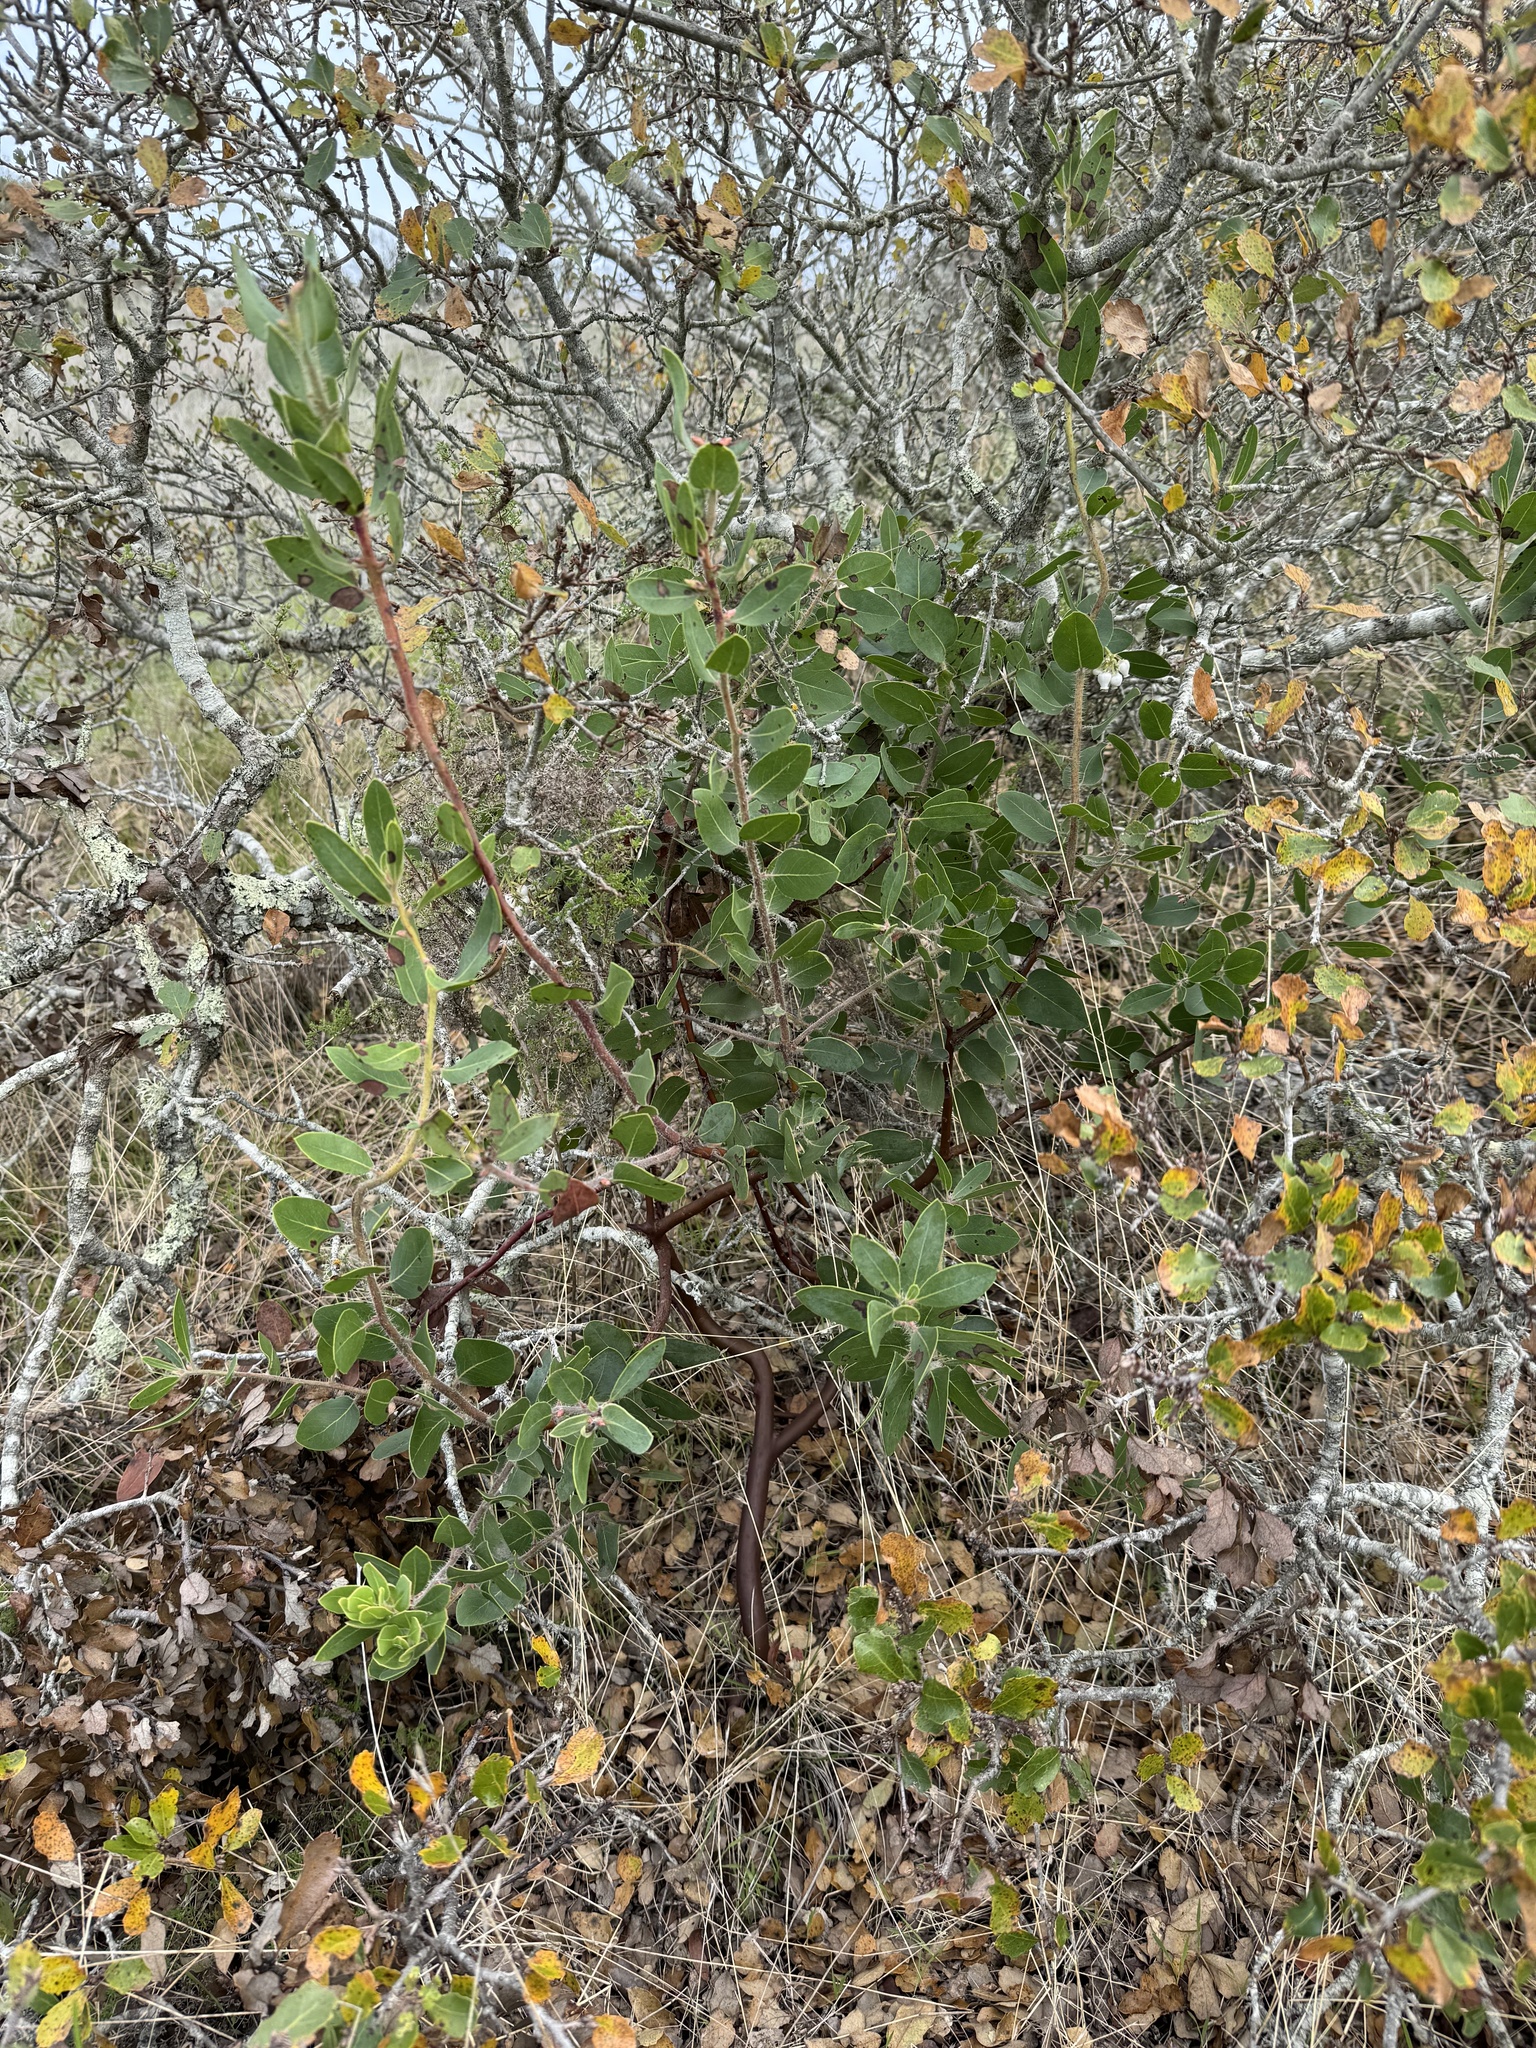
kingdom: Plantae
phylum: Tracheophyta
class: Magnoliopsida
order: Ericales
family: Ericaceae
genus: Arctostaphylos
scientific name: Arctostaphylos catalinae
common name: Santa catalina island manzanita
